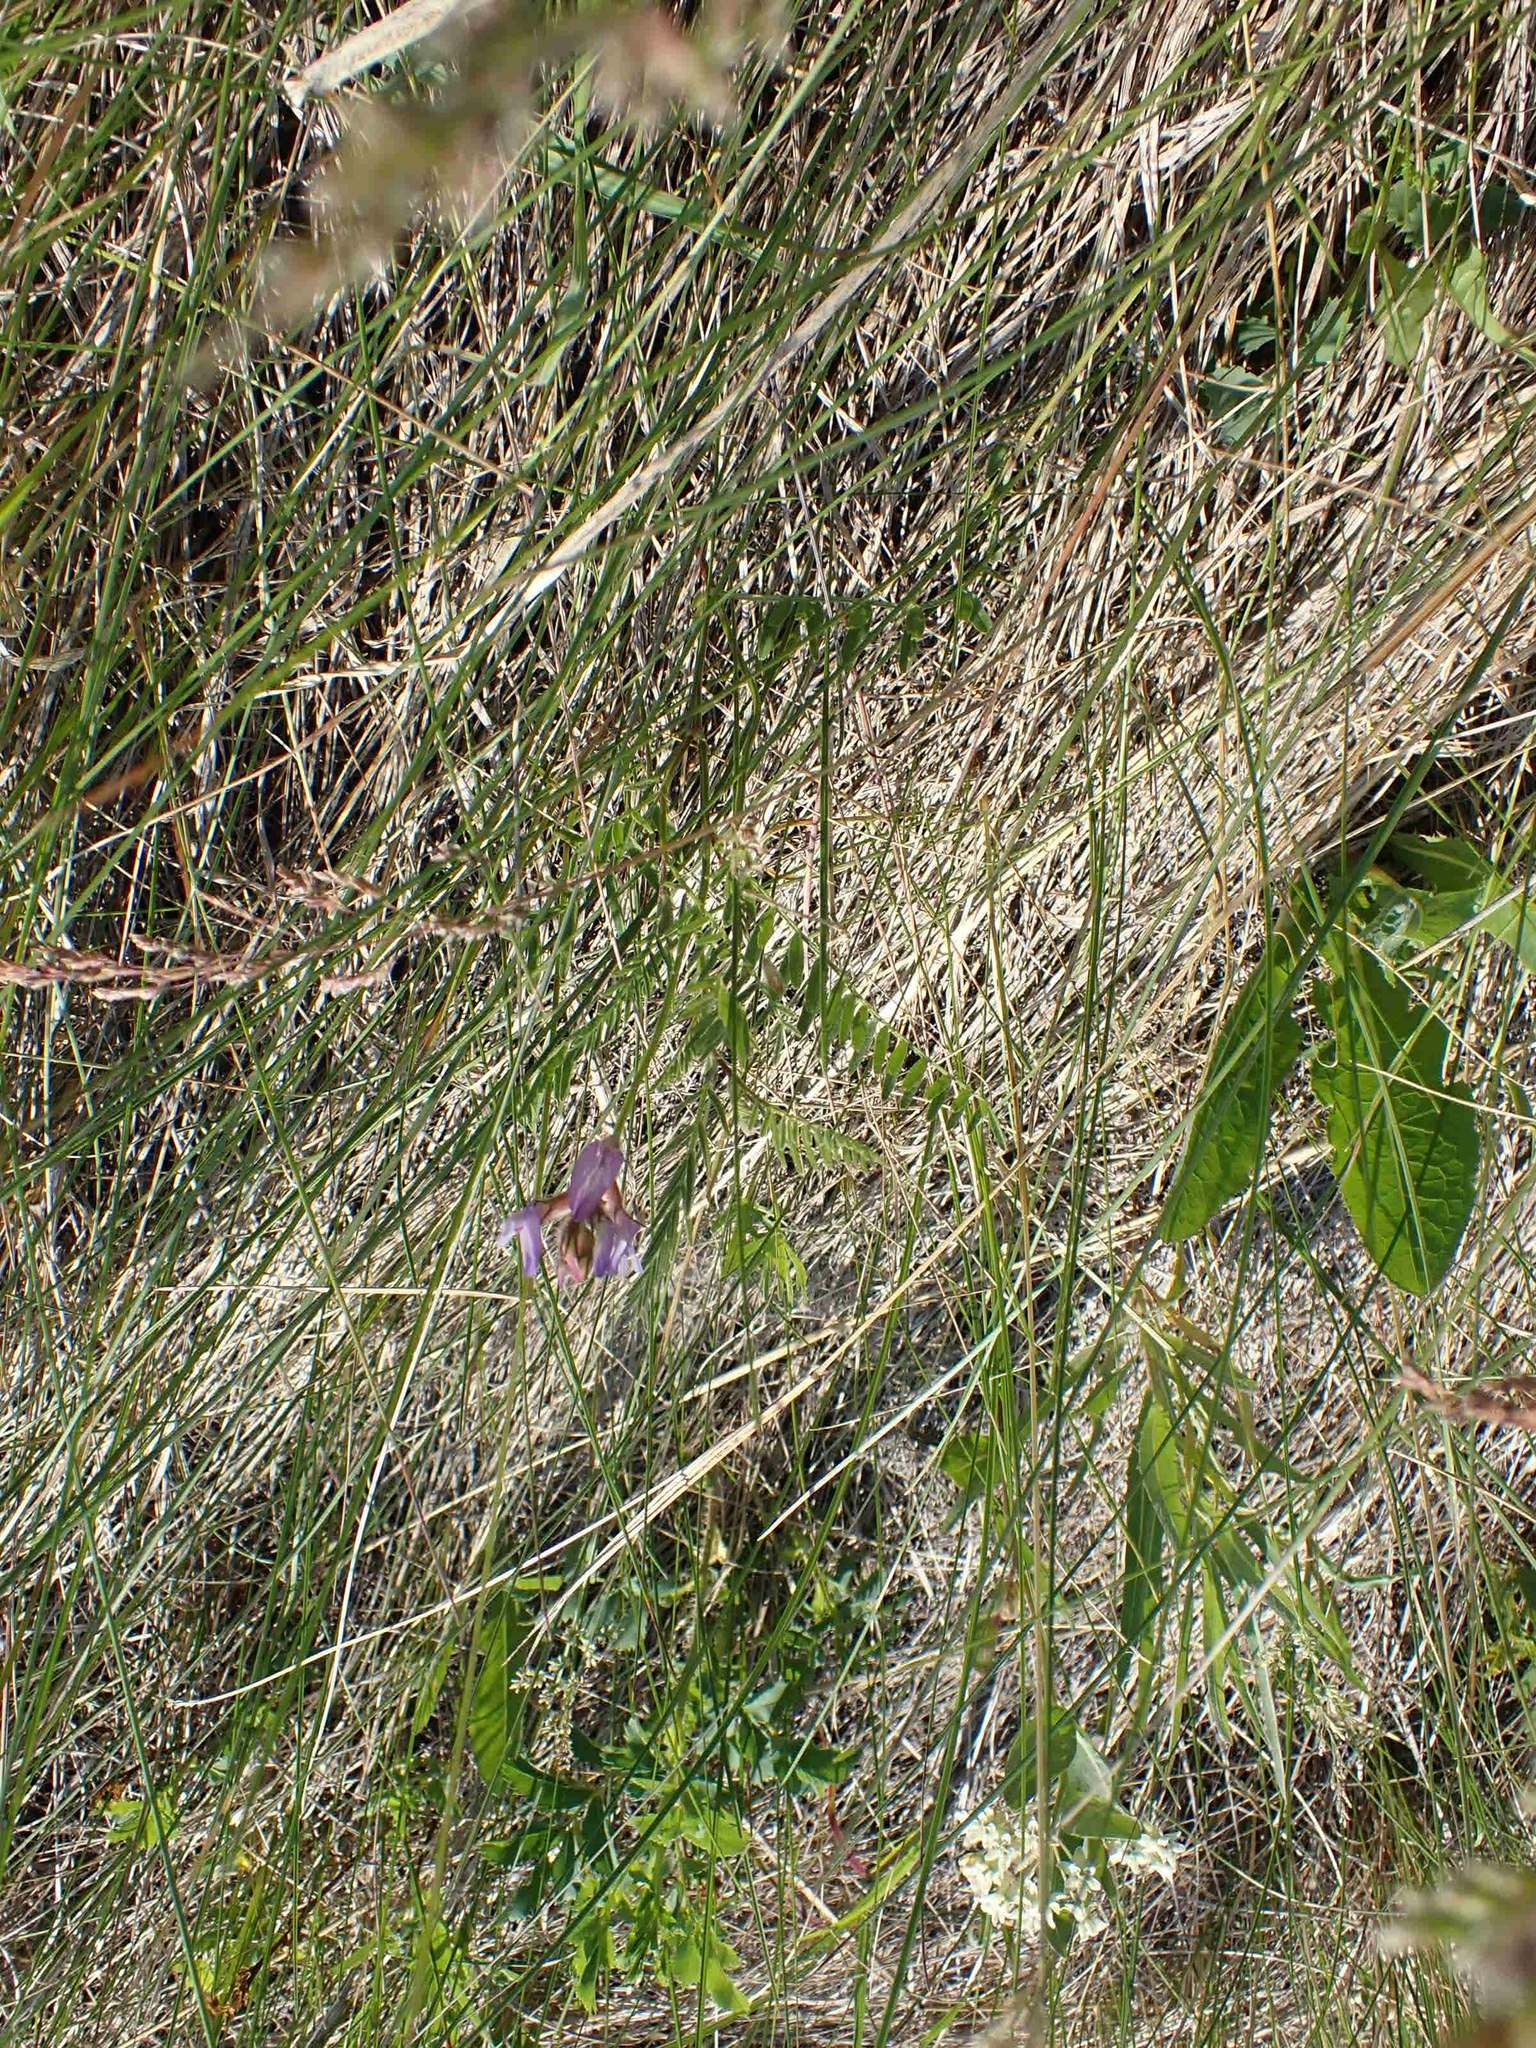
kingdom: Plantae
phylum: Tracheophyta
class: Magnoliopsida
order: Fabales
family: Fabaceae
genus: Astragalus
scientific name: Astragalus agrestis
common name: Field milk-vetch
